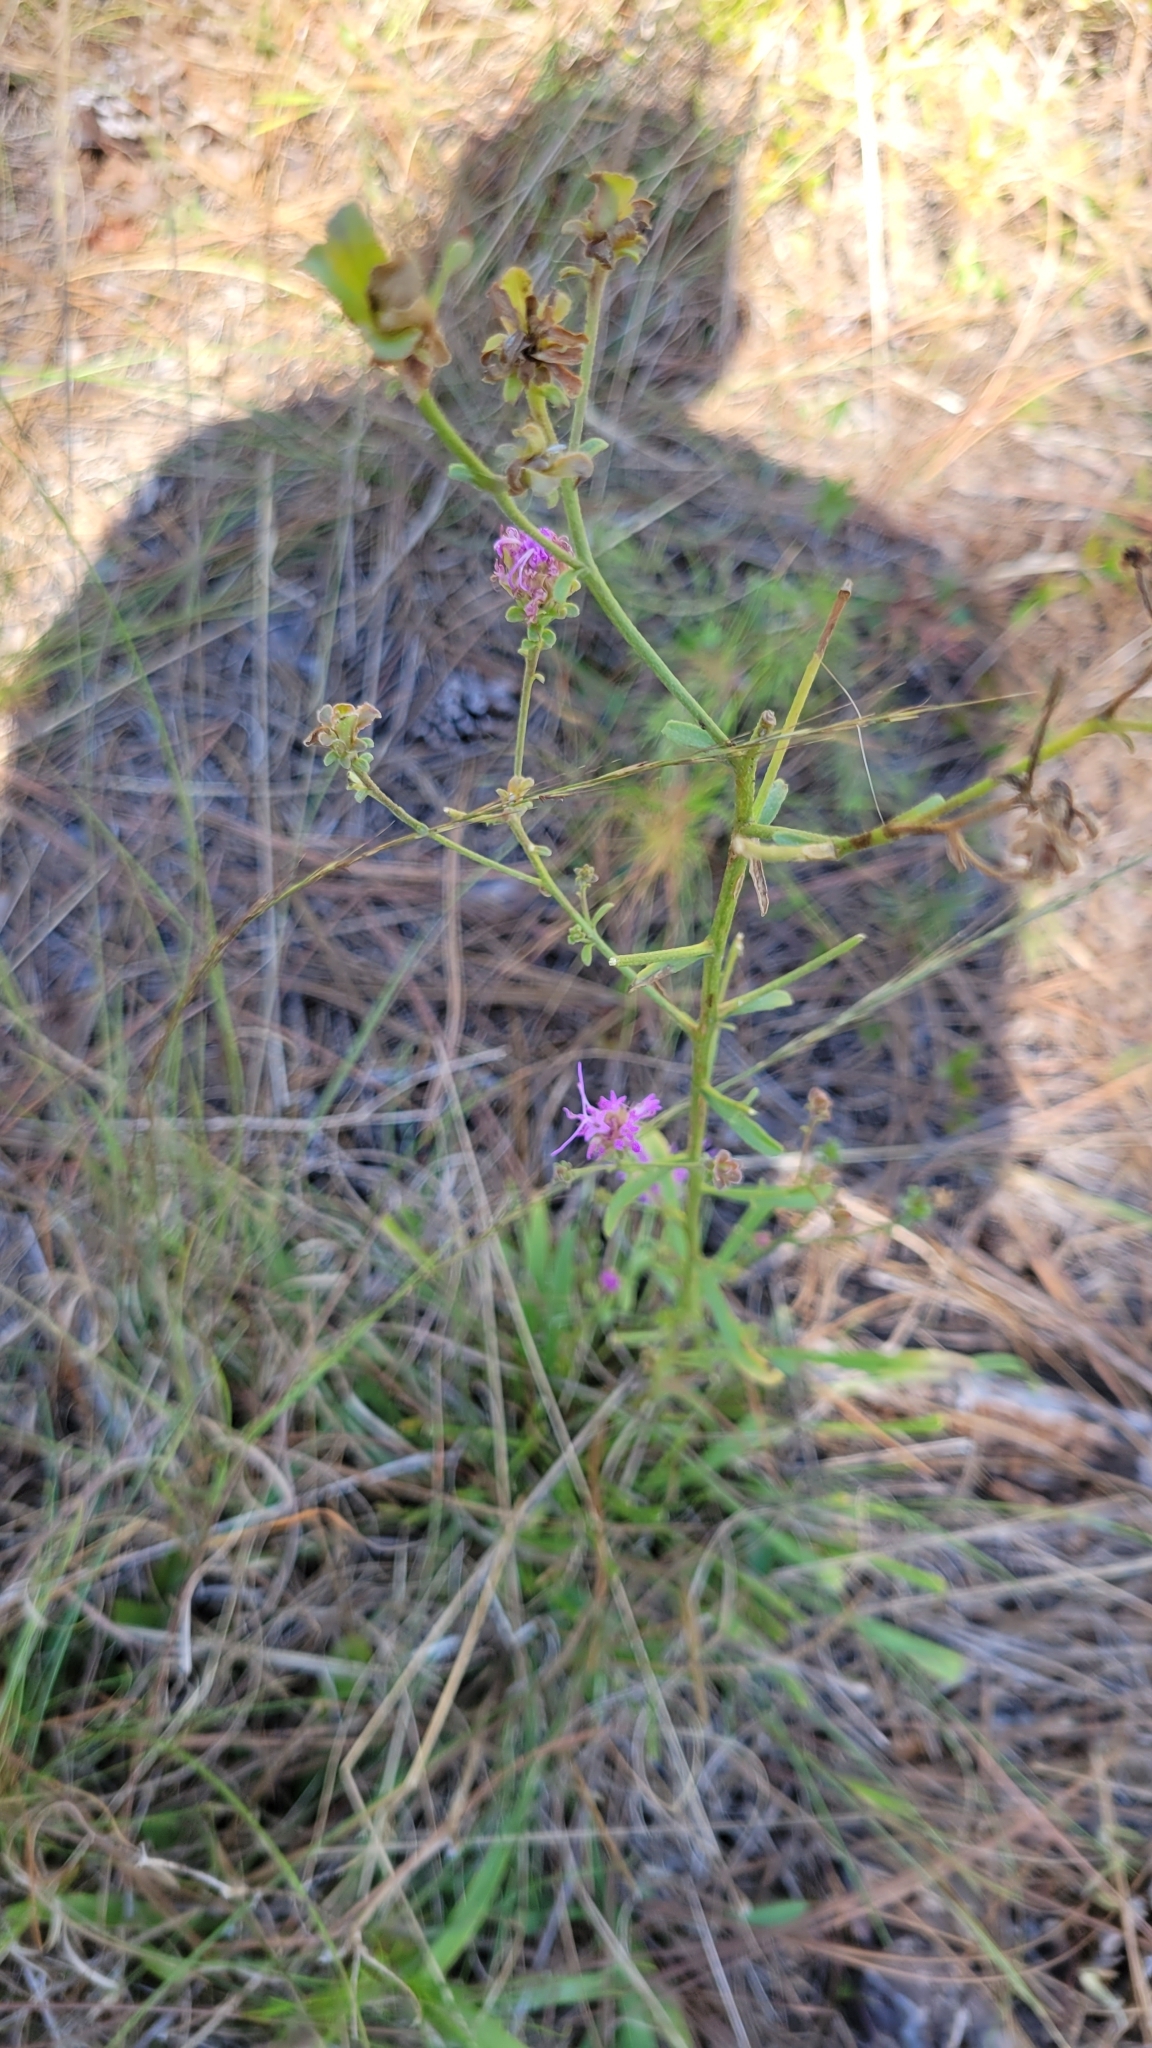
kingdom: Plantae
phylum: Tracheophyta
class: Magnoliopsida
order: Asterales
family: Asteraceae
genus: Carphephorus
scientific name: Carphephorus bellidifolius
